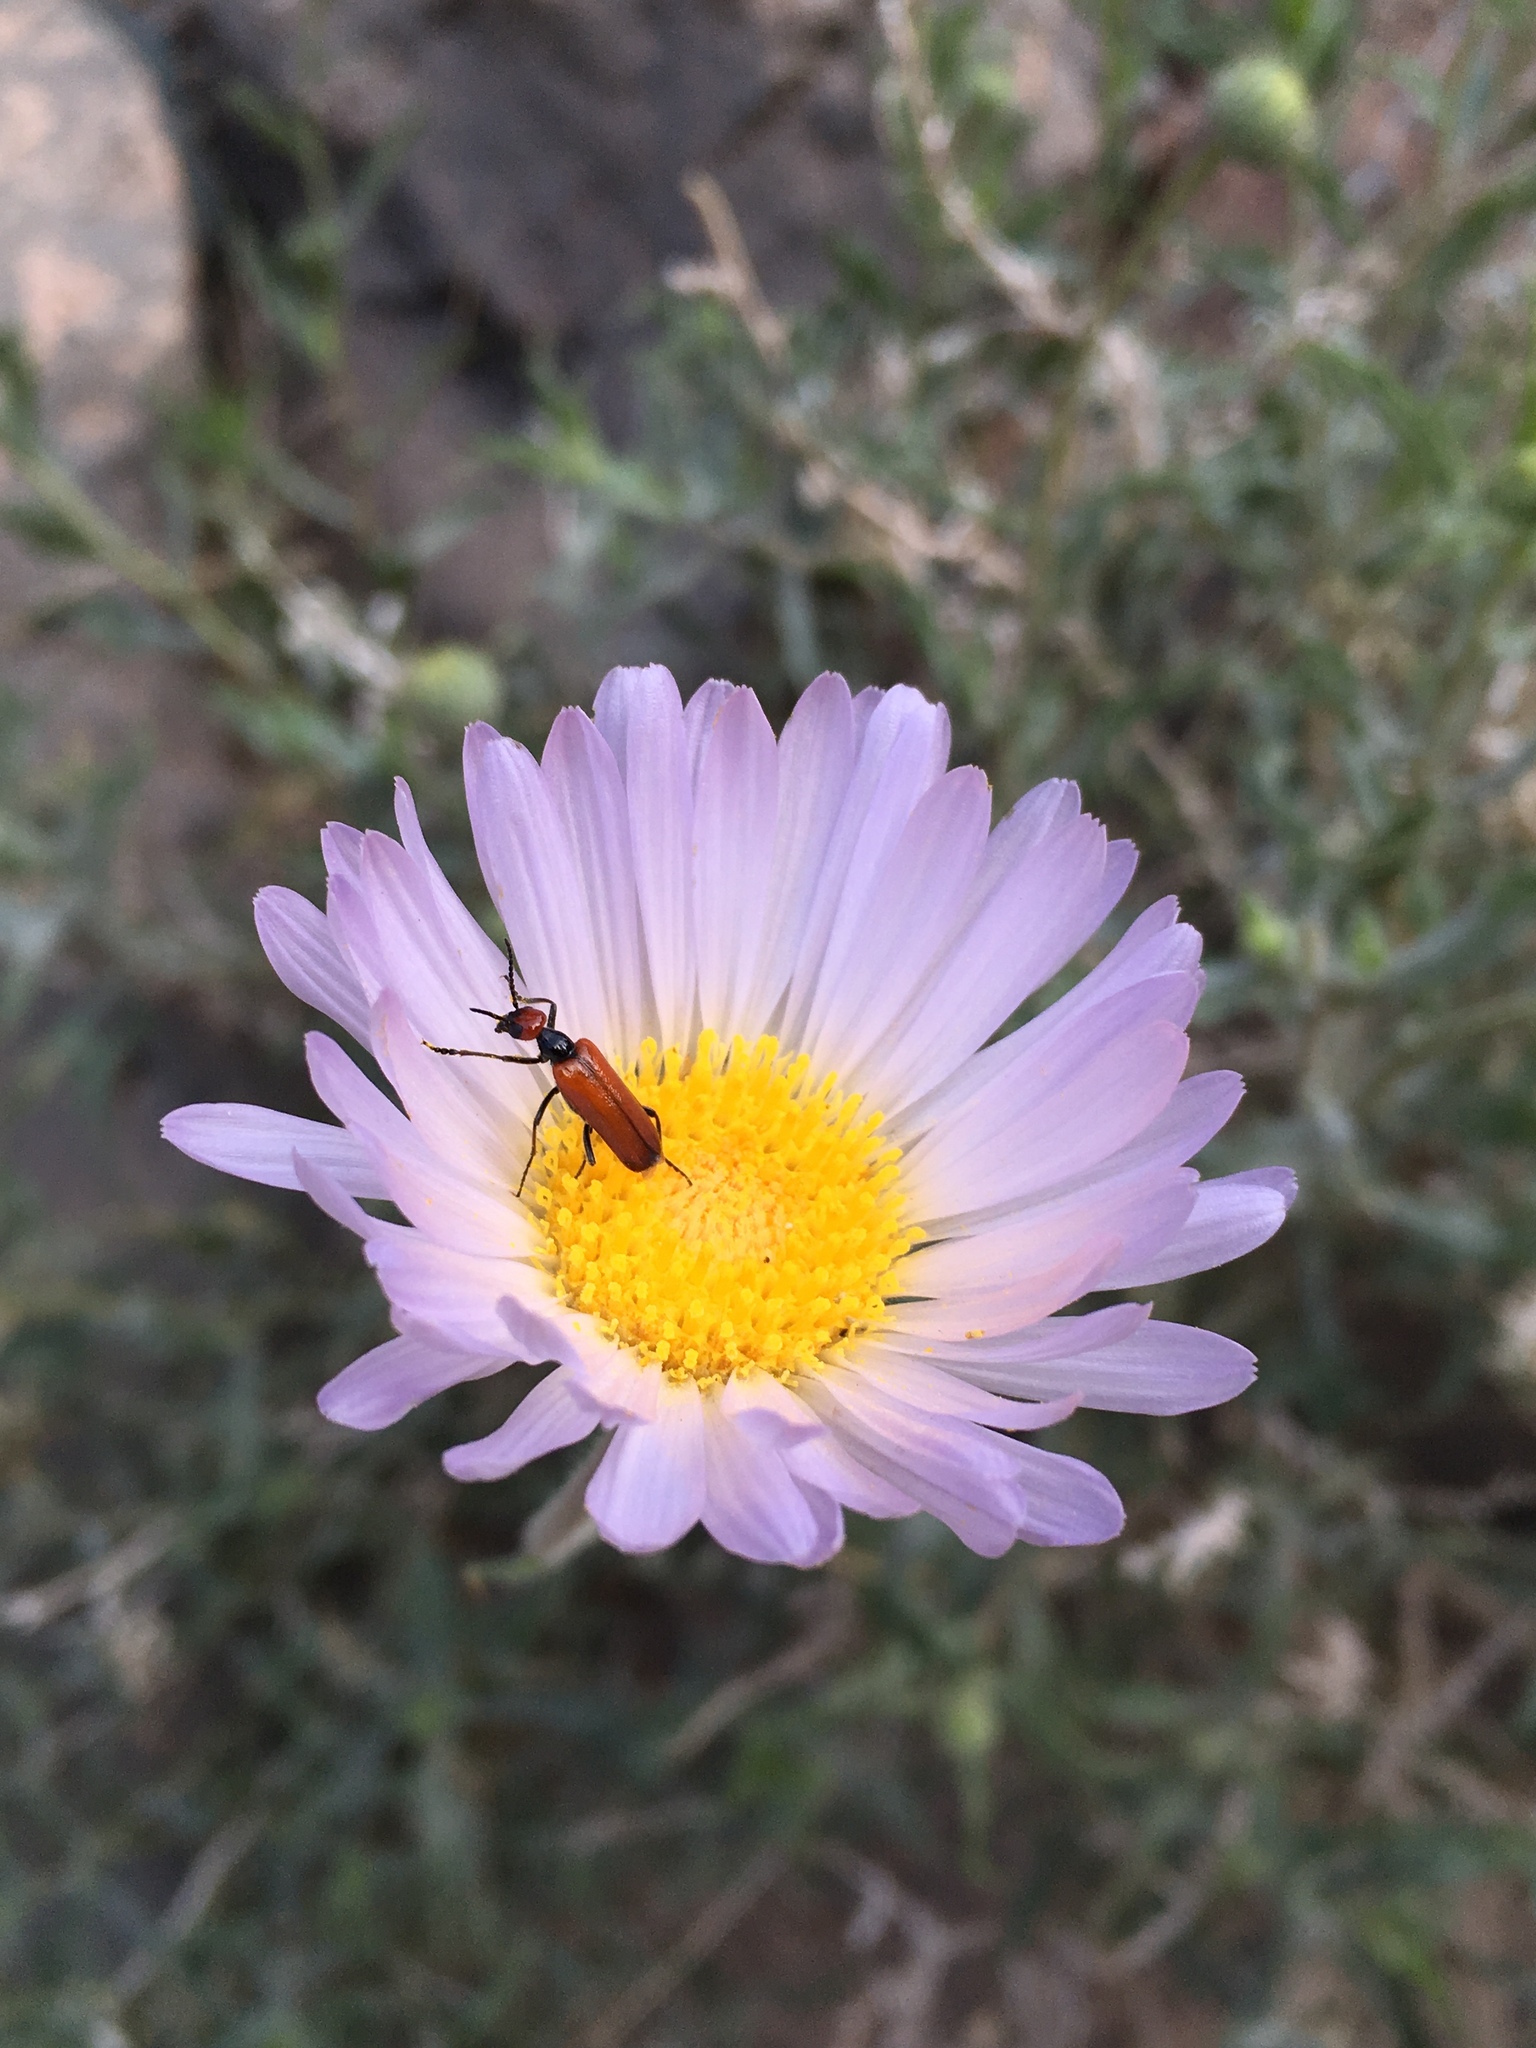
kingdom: Animalia
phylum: Arthropoda
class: Insecta
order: Coleoptera
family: Meloidae
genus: Eupompha
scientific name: Eupompha schwarzi
